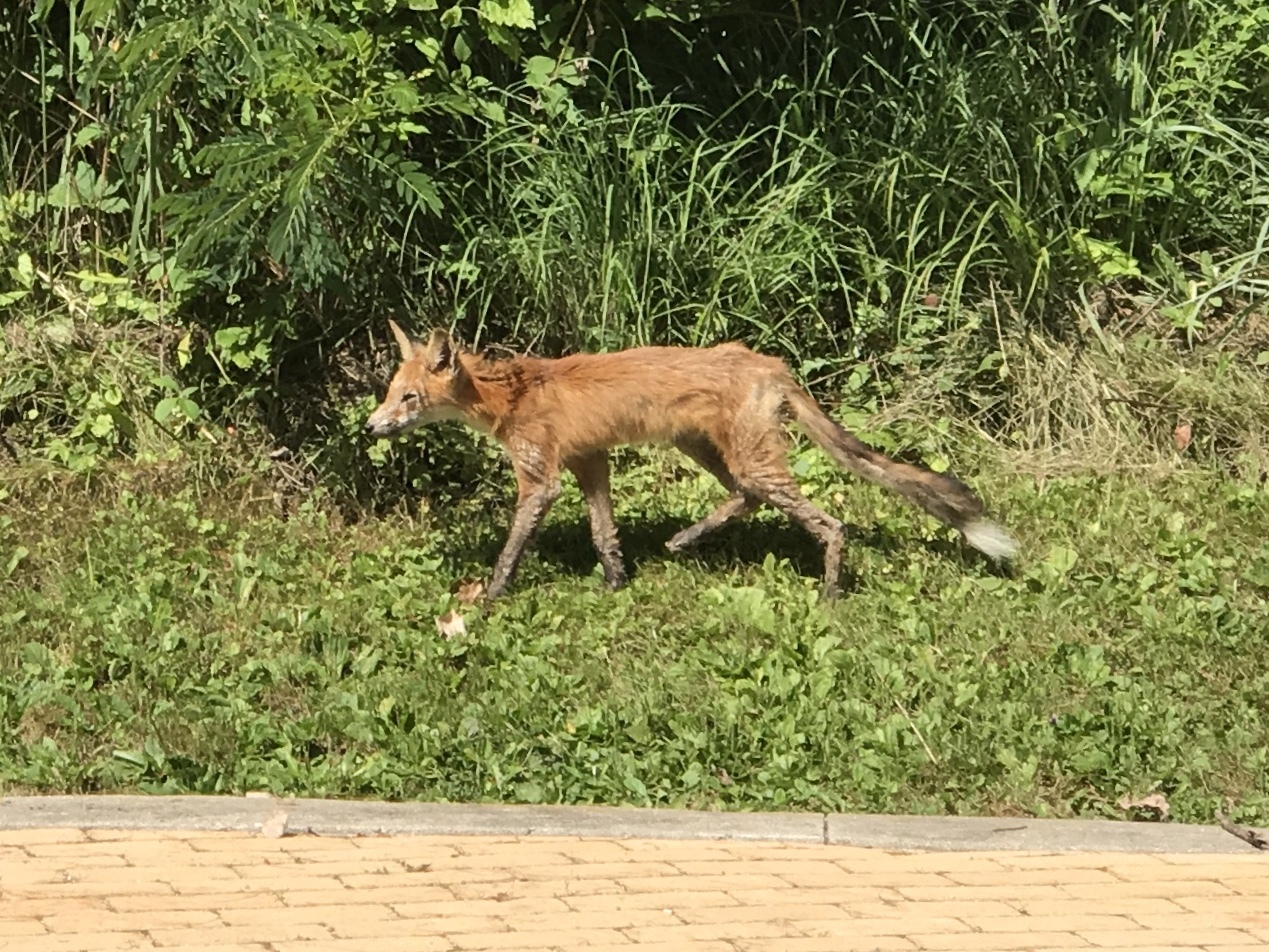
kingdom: Animalia
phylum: Chordata
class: Mammalia
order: Carnivora
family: Canidae
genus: Vulpes
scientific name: Vulpes vulpes
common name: Red fox
